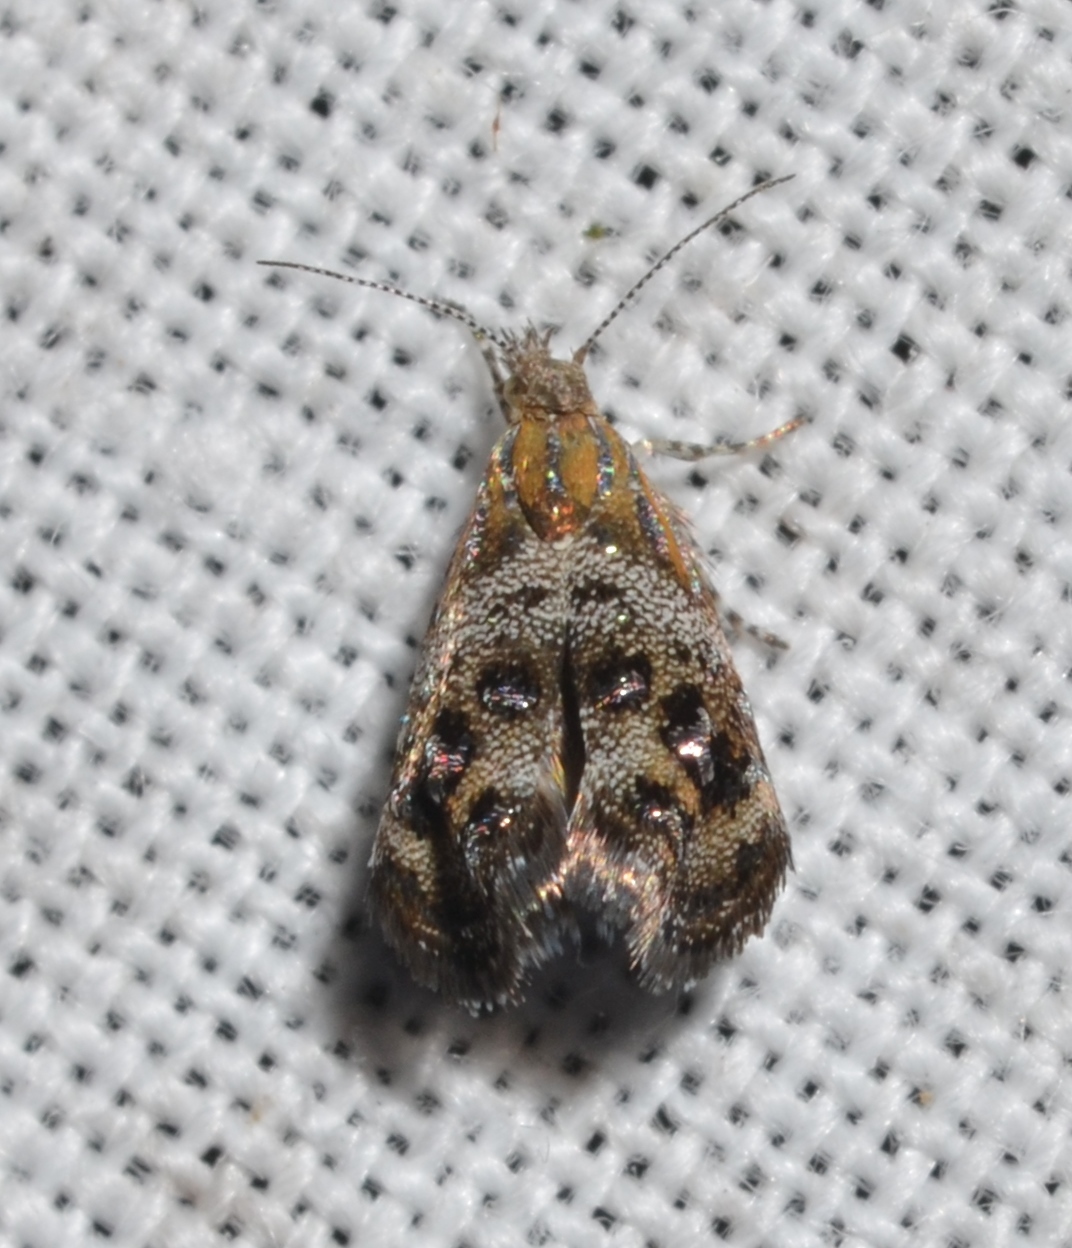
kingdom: Animalia
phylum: Arthropoda
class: Insecta
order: Lepidoptera
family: Choreutidae
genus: Tebenna
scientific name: Tebenna gnaphaliella
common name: Everlasting tebenna moth
